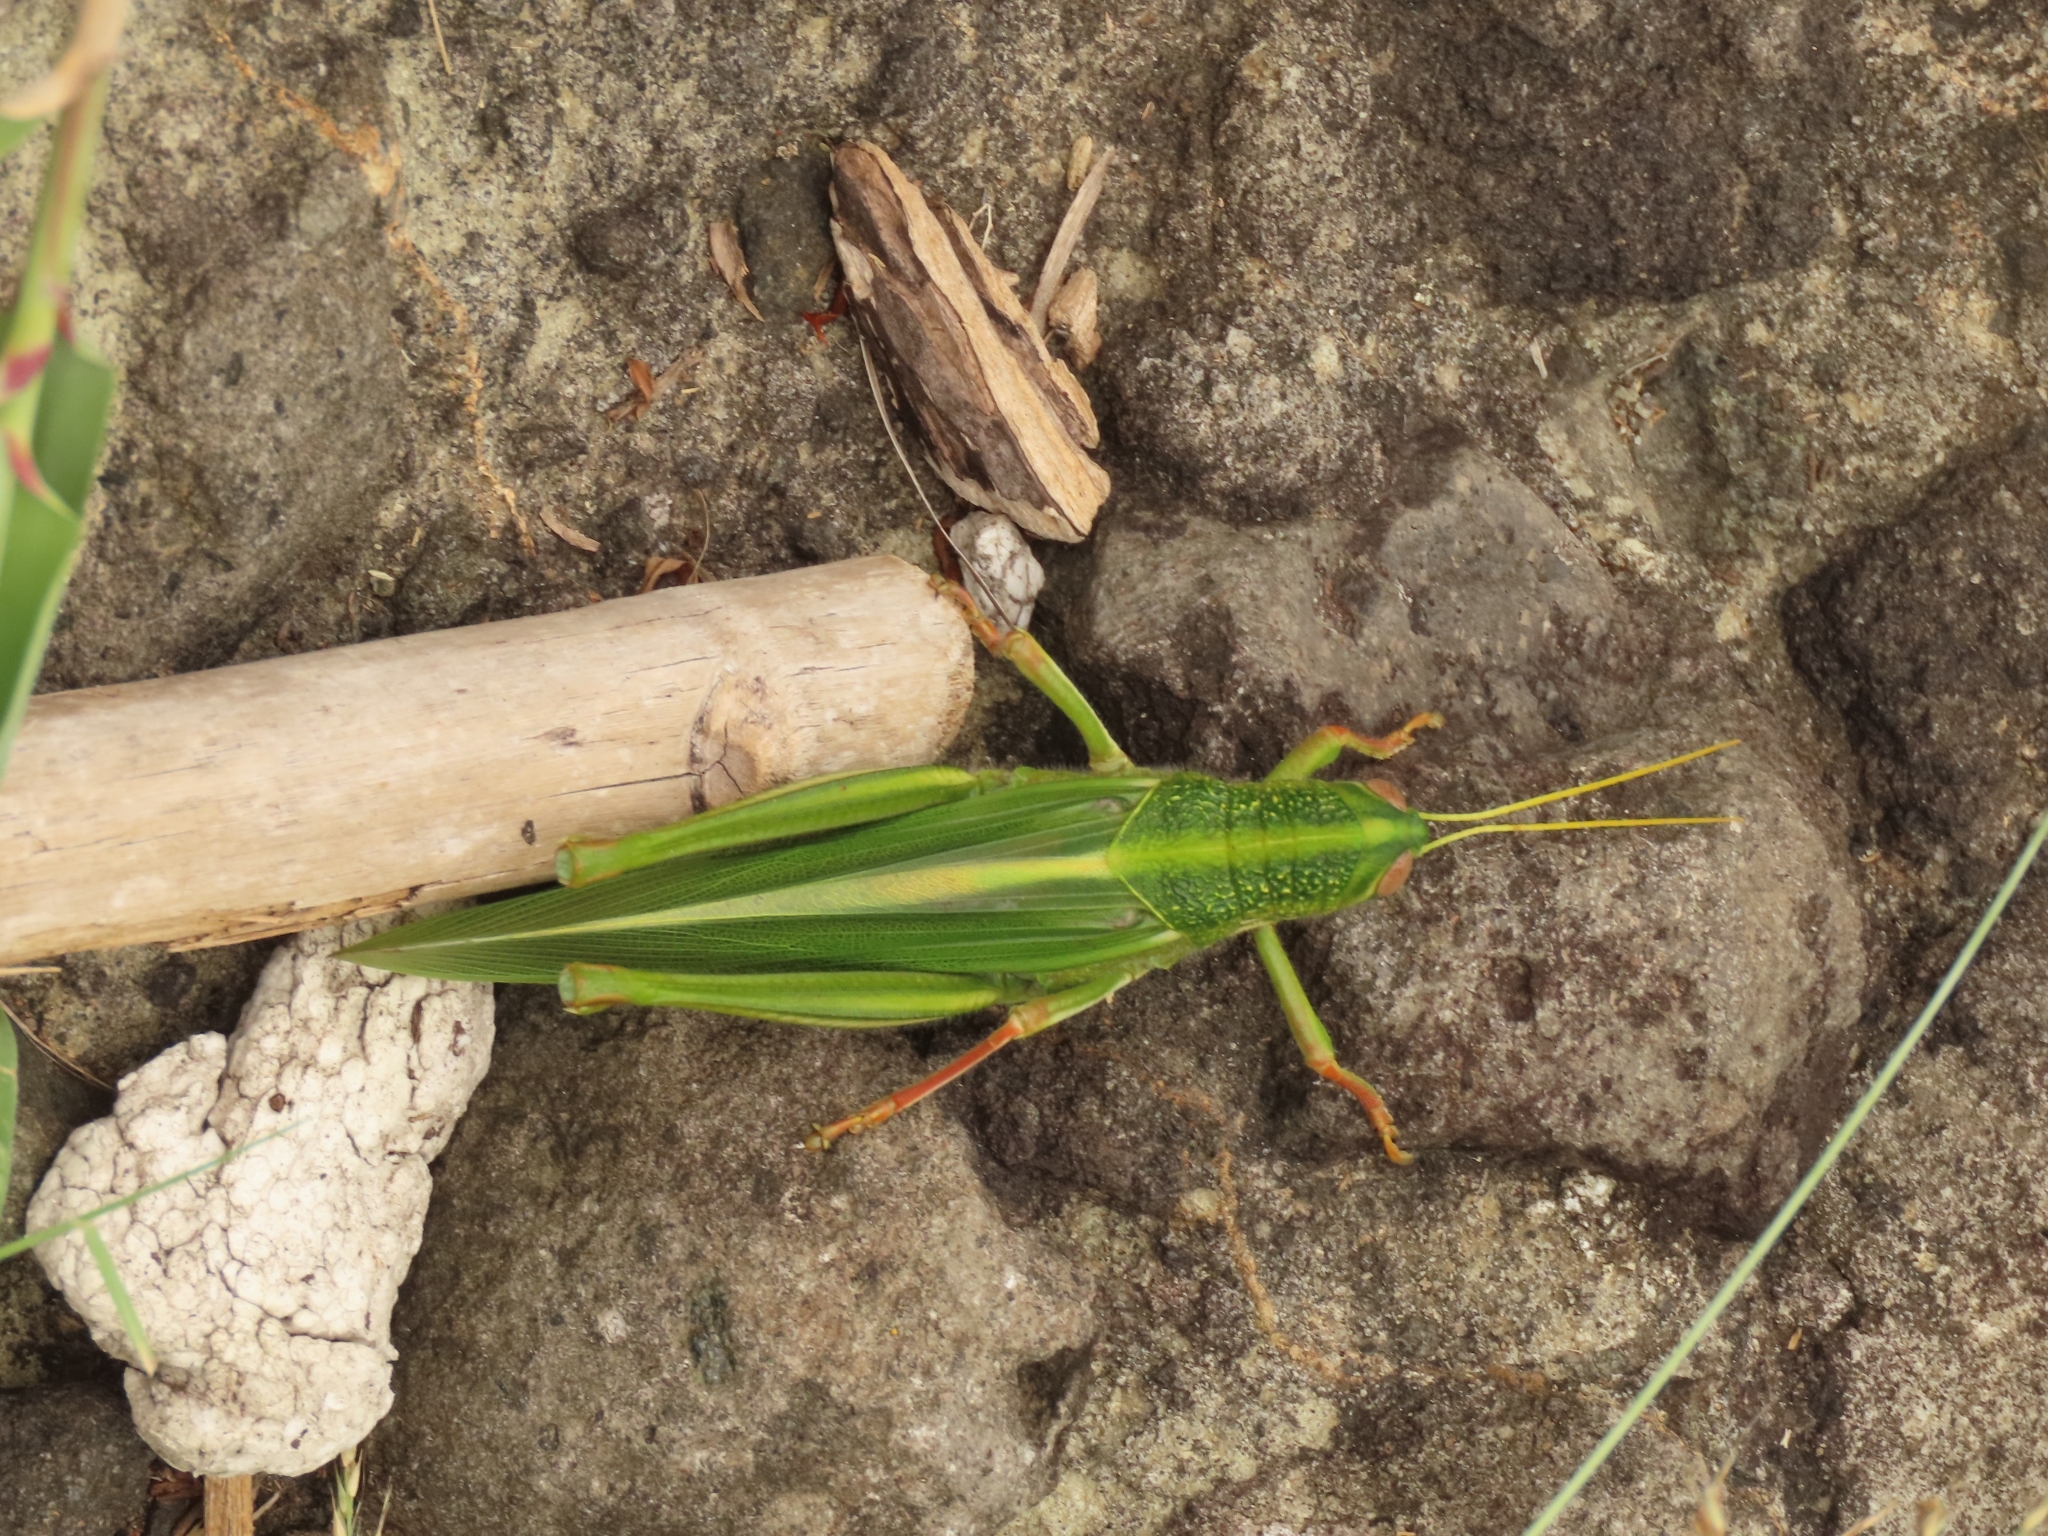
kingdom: Animalia
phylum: Arthropoda
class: Insecta
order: Orthoptera
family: Acrididae
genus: Chondracris
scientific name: Chondracris rosea
